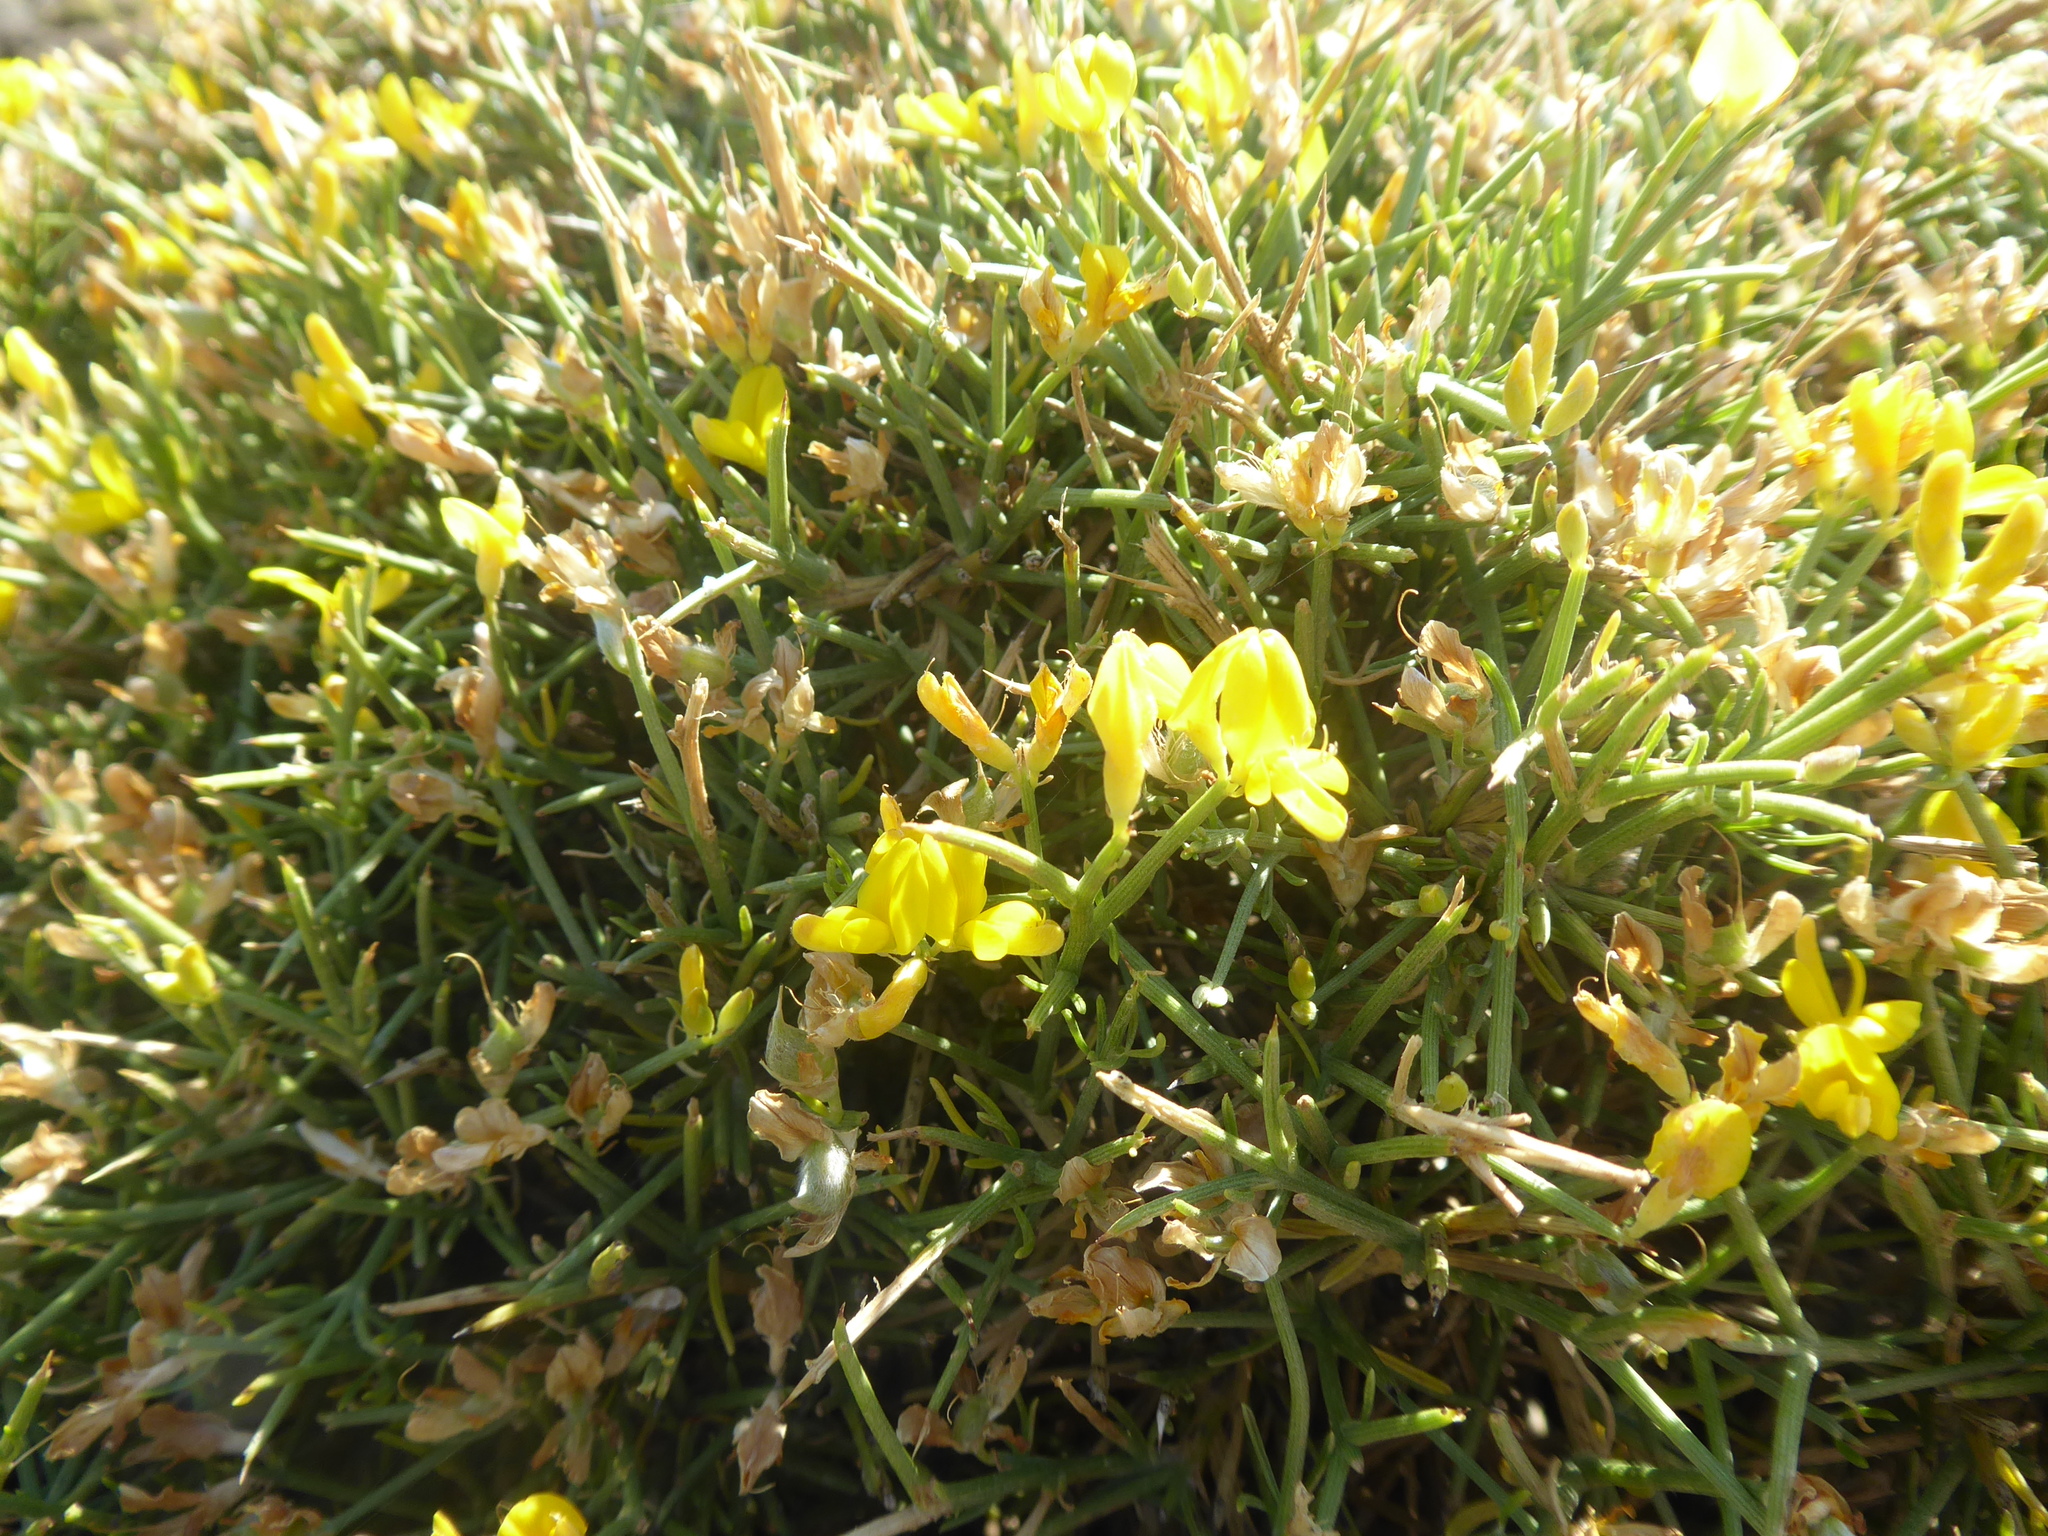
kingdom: Plantae
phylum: Tracheophyta
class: Magnoliopsida
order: Fabales
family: Fabaceae
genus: Genista
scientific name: Genista acanthoclada
